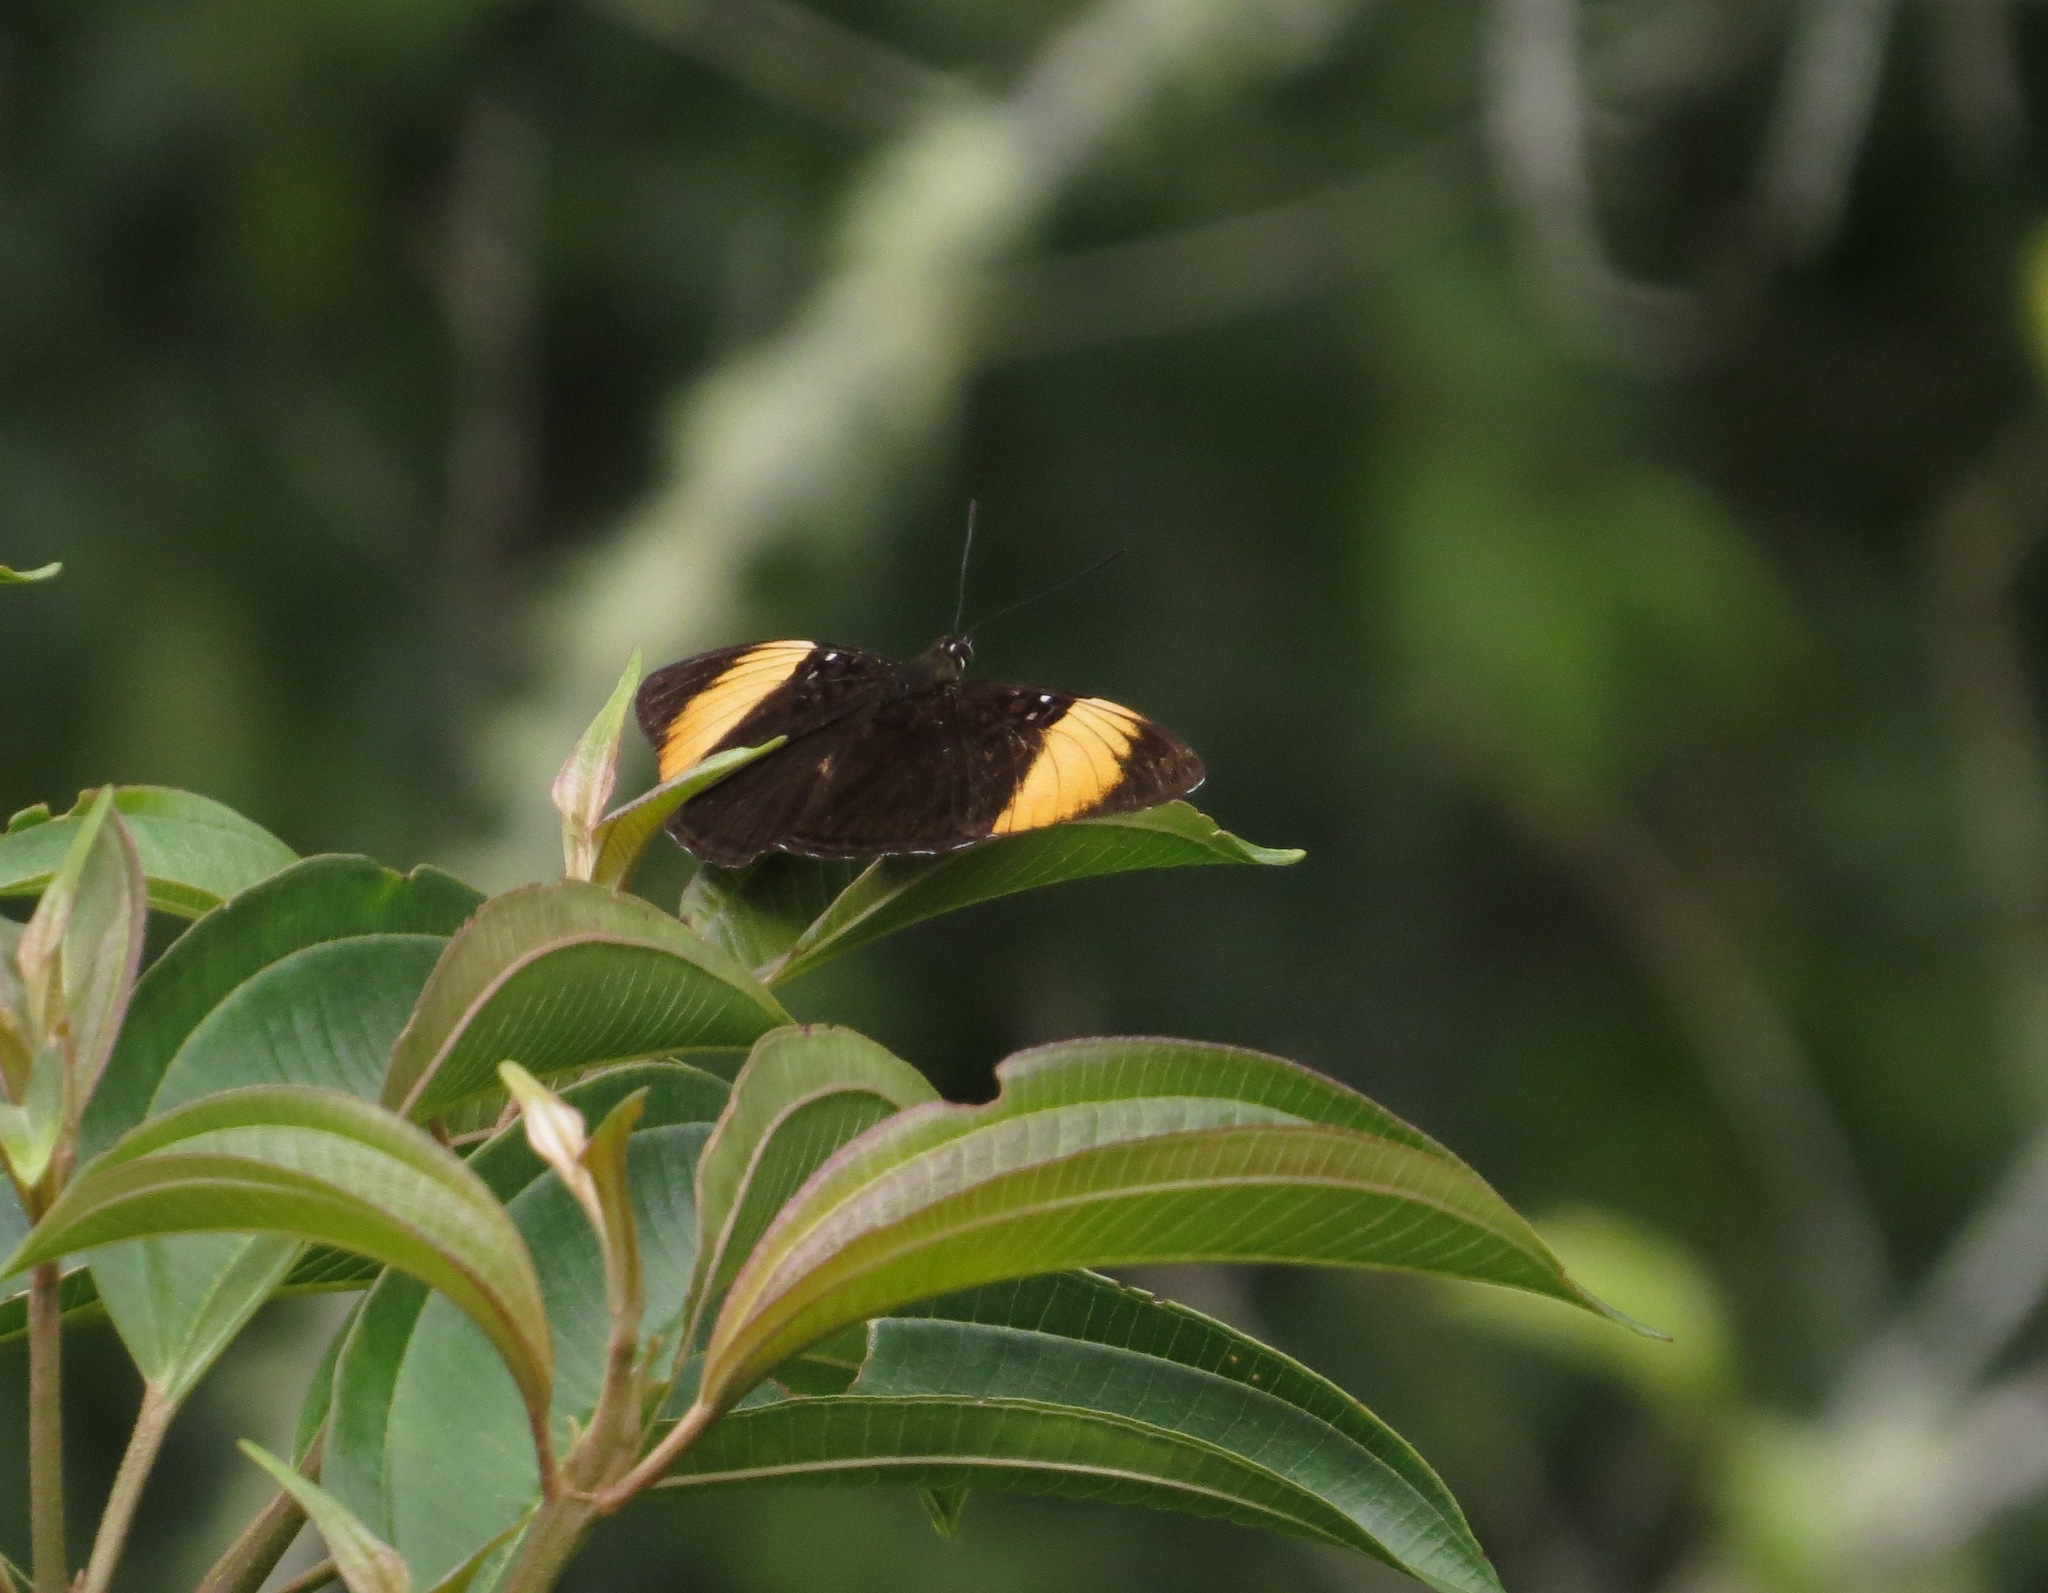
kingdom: Animalia
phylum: Arthropoda
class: Insecta
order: Lepidoptera
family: Nymphalidae
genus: Limenitis
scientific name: Limenitis melanthe
